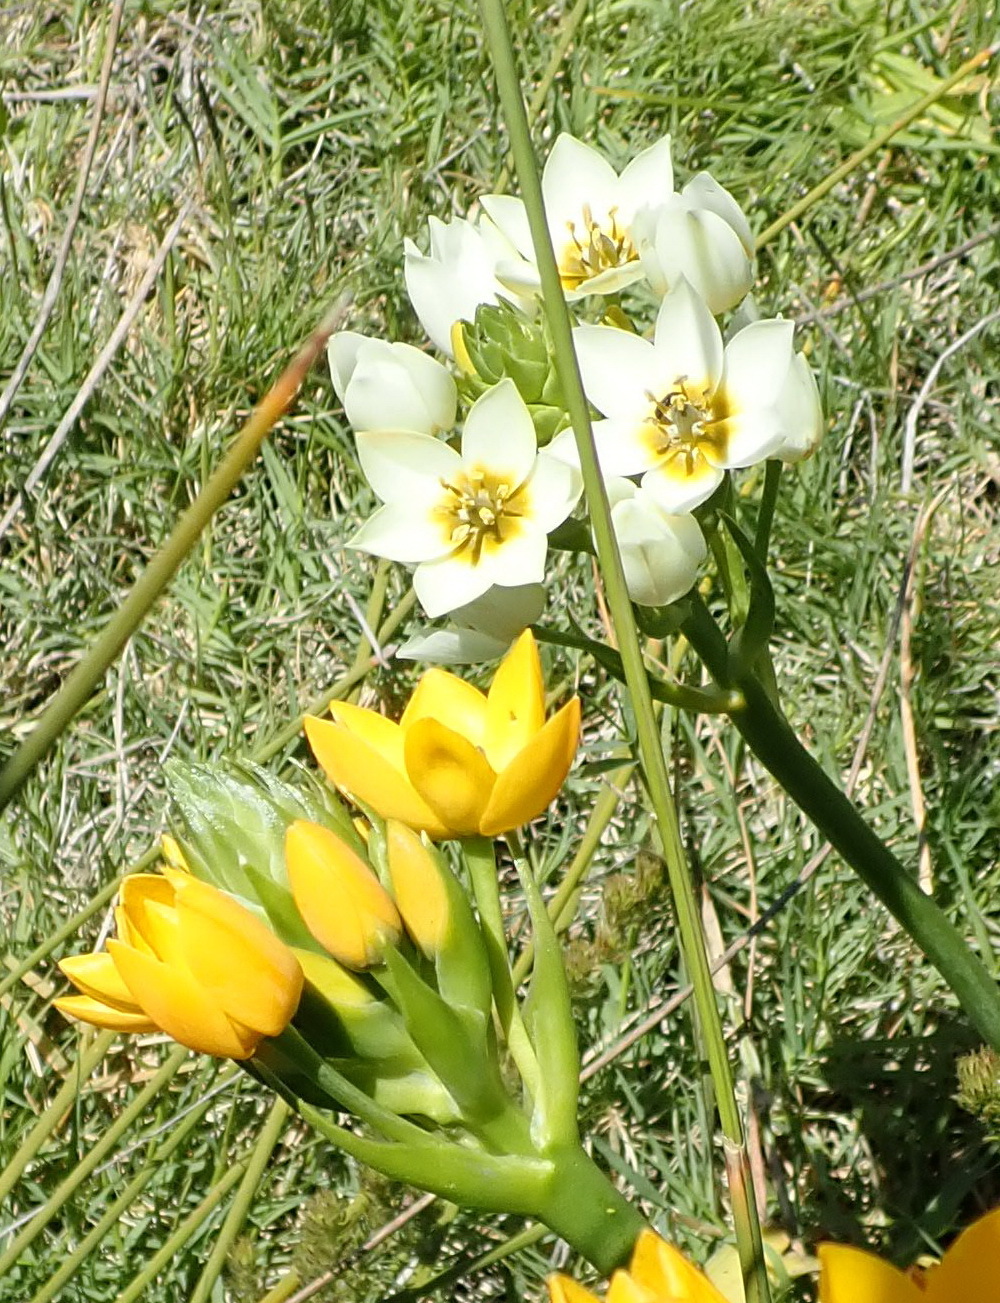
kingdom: Plantae
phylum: Tracheophyta
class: Liliopsida
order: Asparagales
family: Asparagaceae
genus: Ornithogalum
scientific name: Ornithogalum dubium
